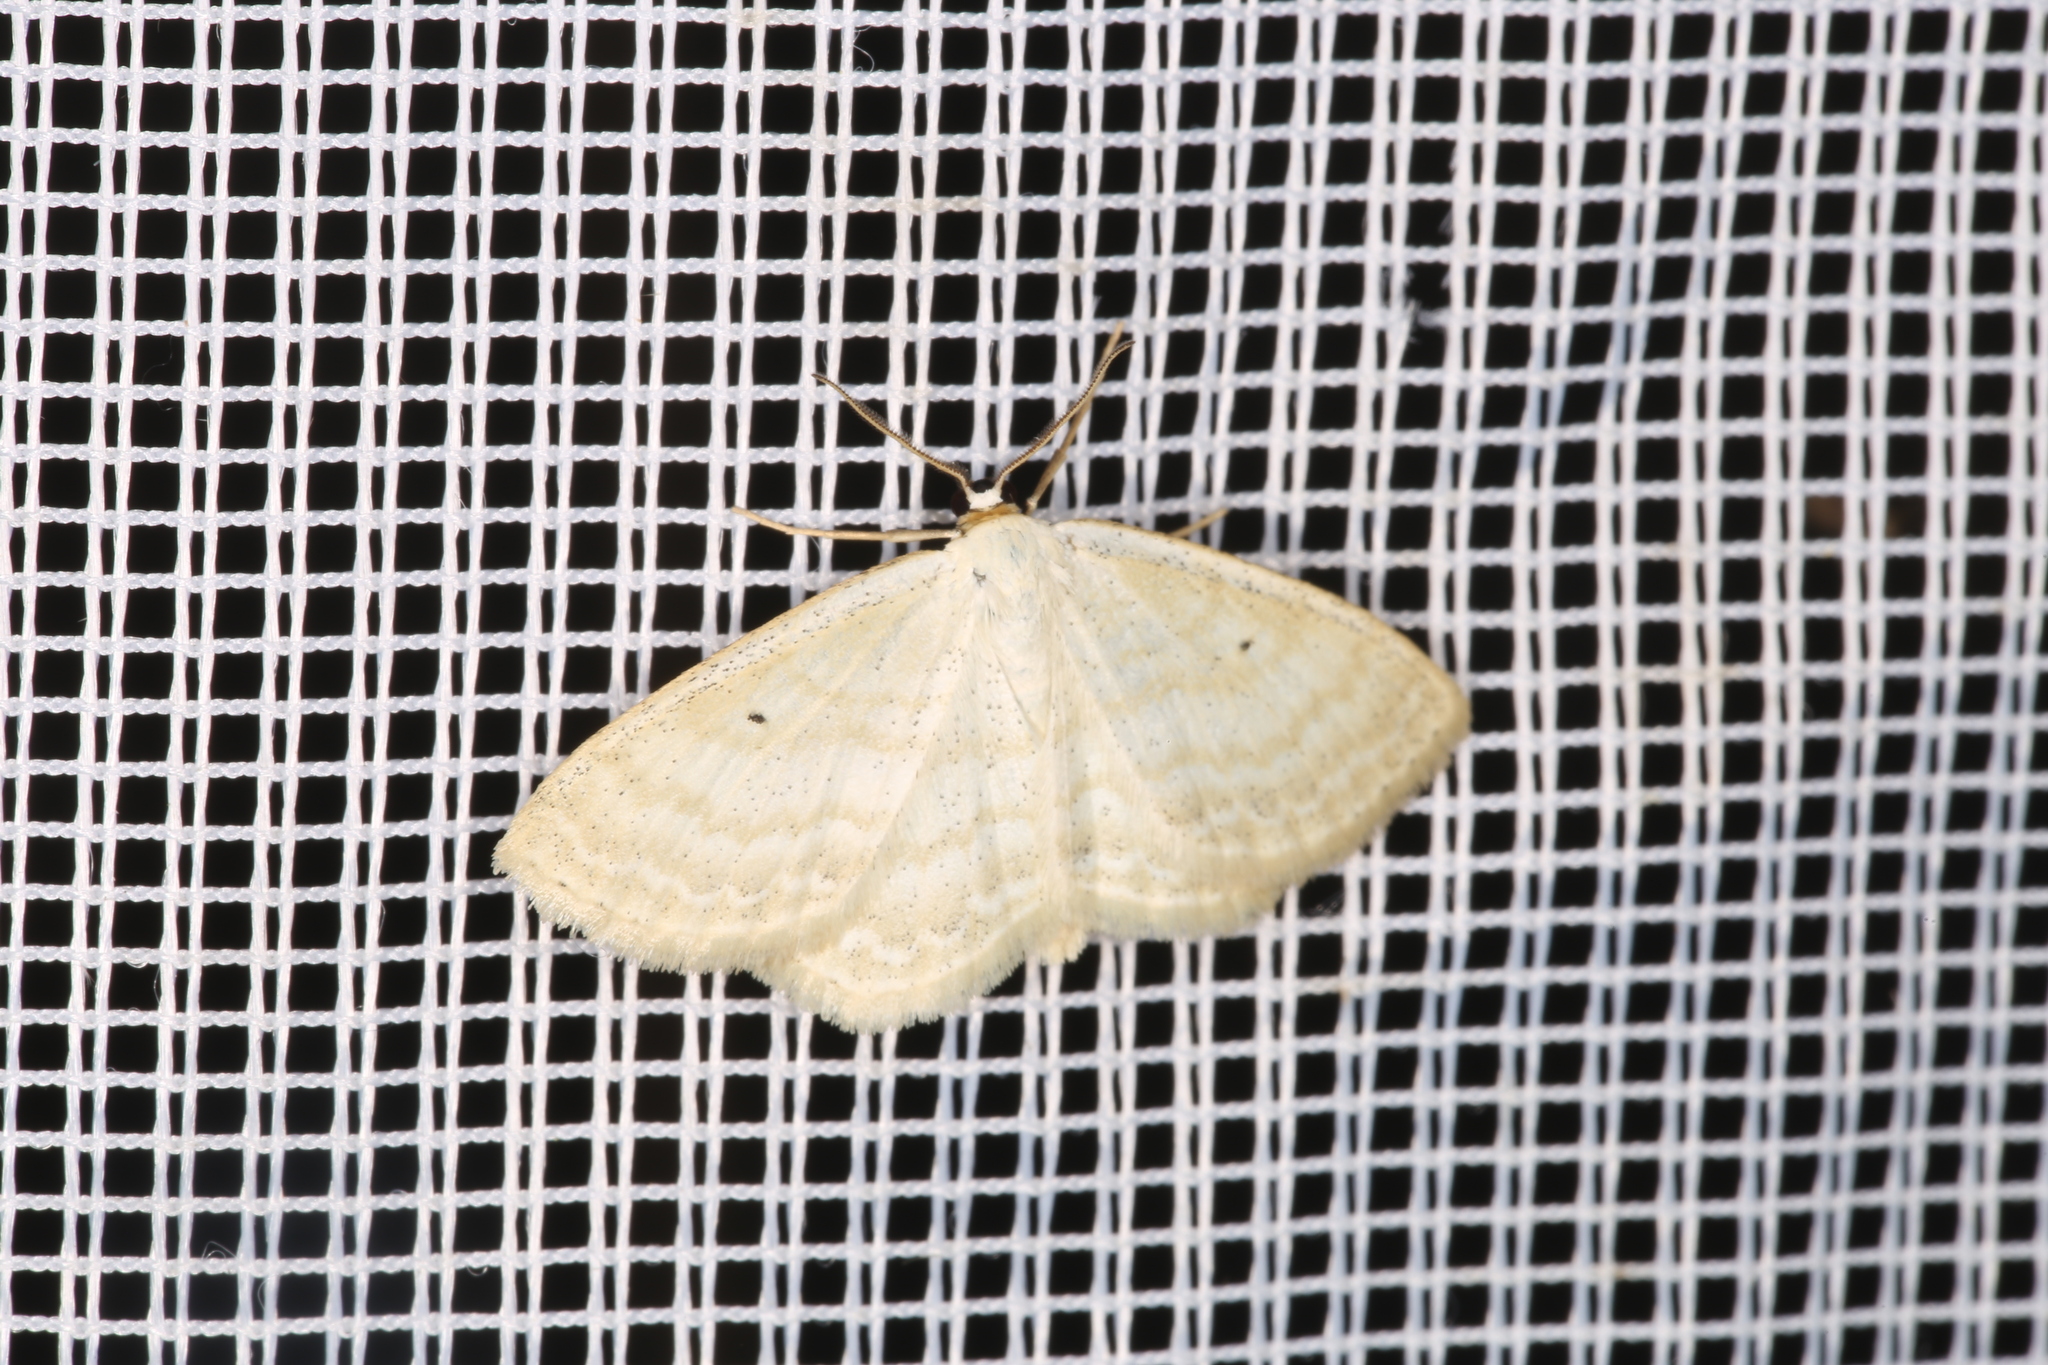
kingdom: Animalia
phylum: Arthropoda
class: Insecta
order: Lepidoptera
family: Geometridae
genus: Scopula
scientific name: Scopula immutata
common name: Lesser cream wave
